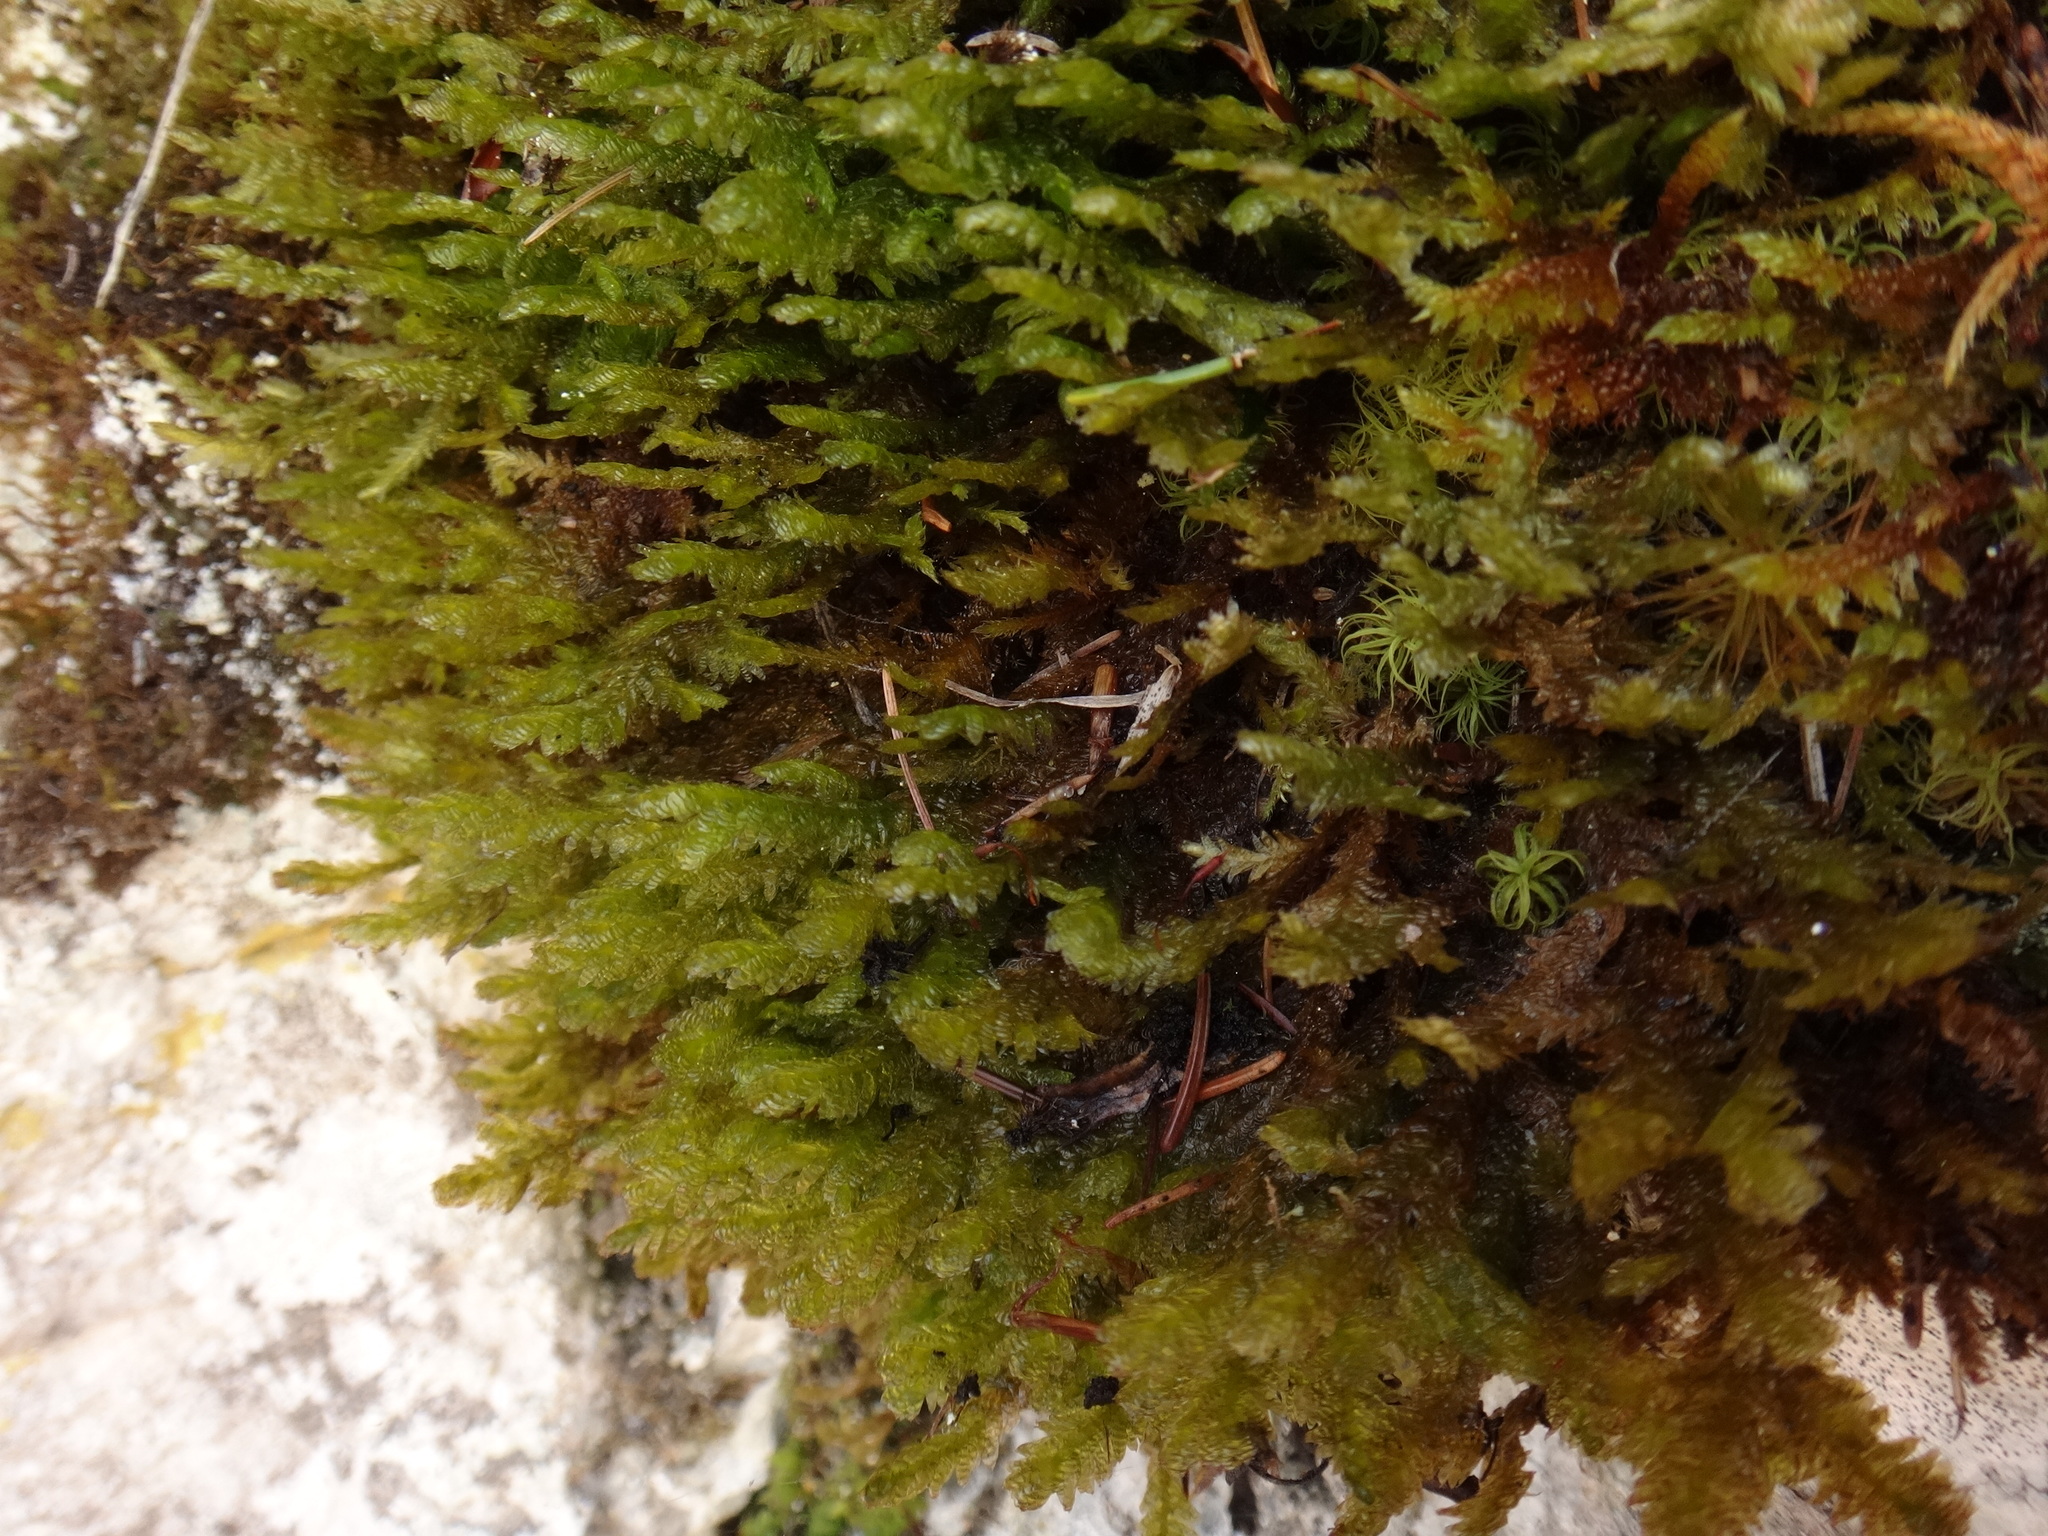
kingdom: Plantae
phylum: Bryophyta
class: Bryopsida
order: Hypnales
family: Neckeraceae
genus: Exsertotheca
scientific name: Exsertotheca crispa
